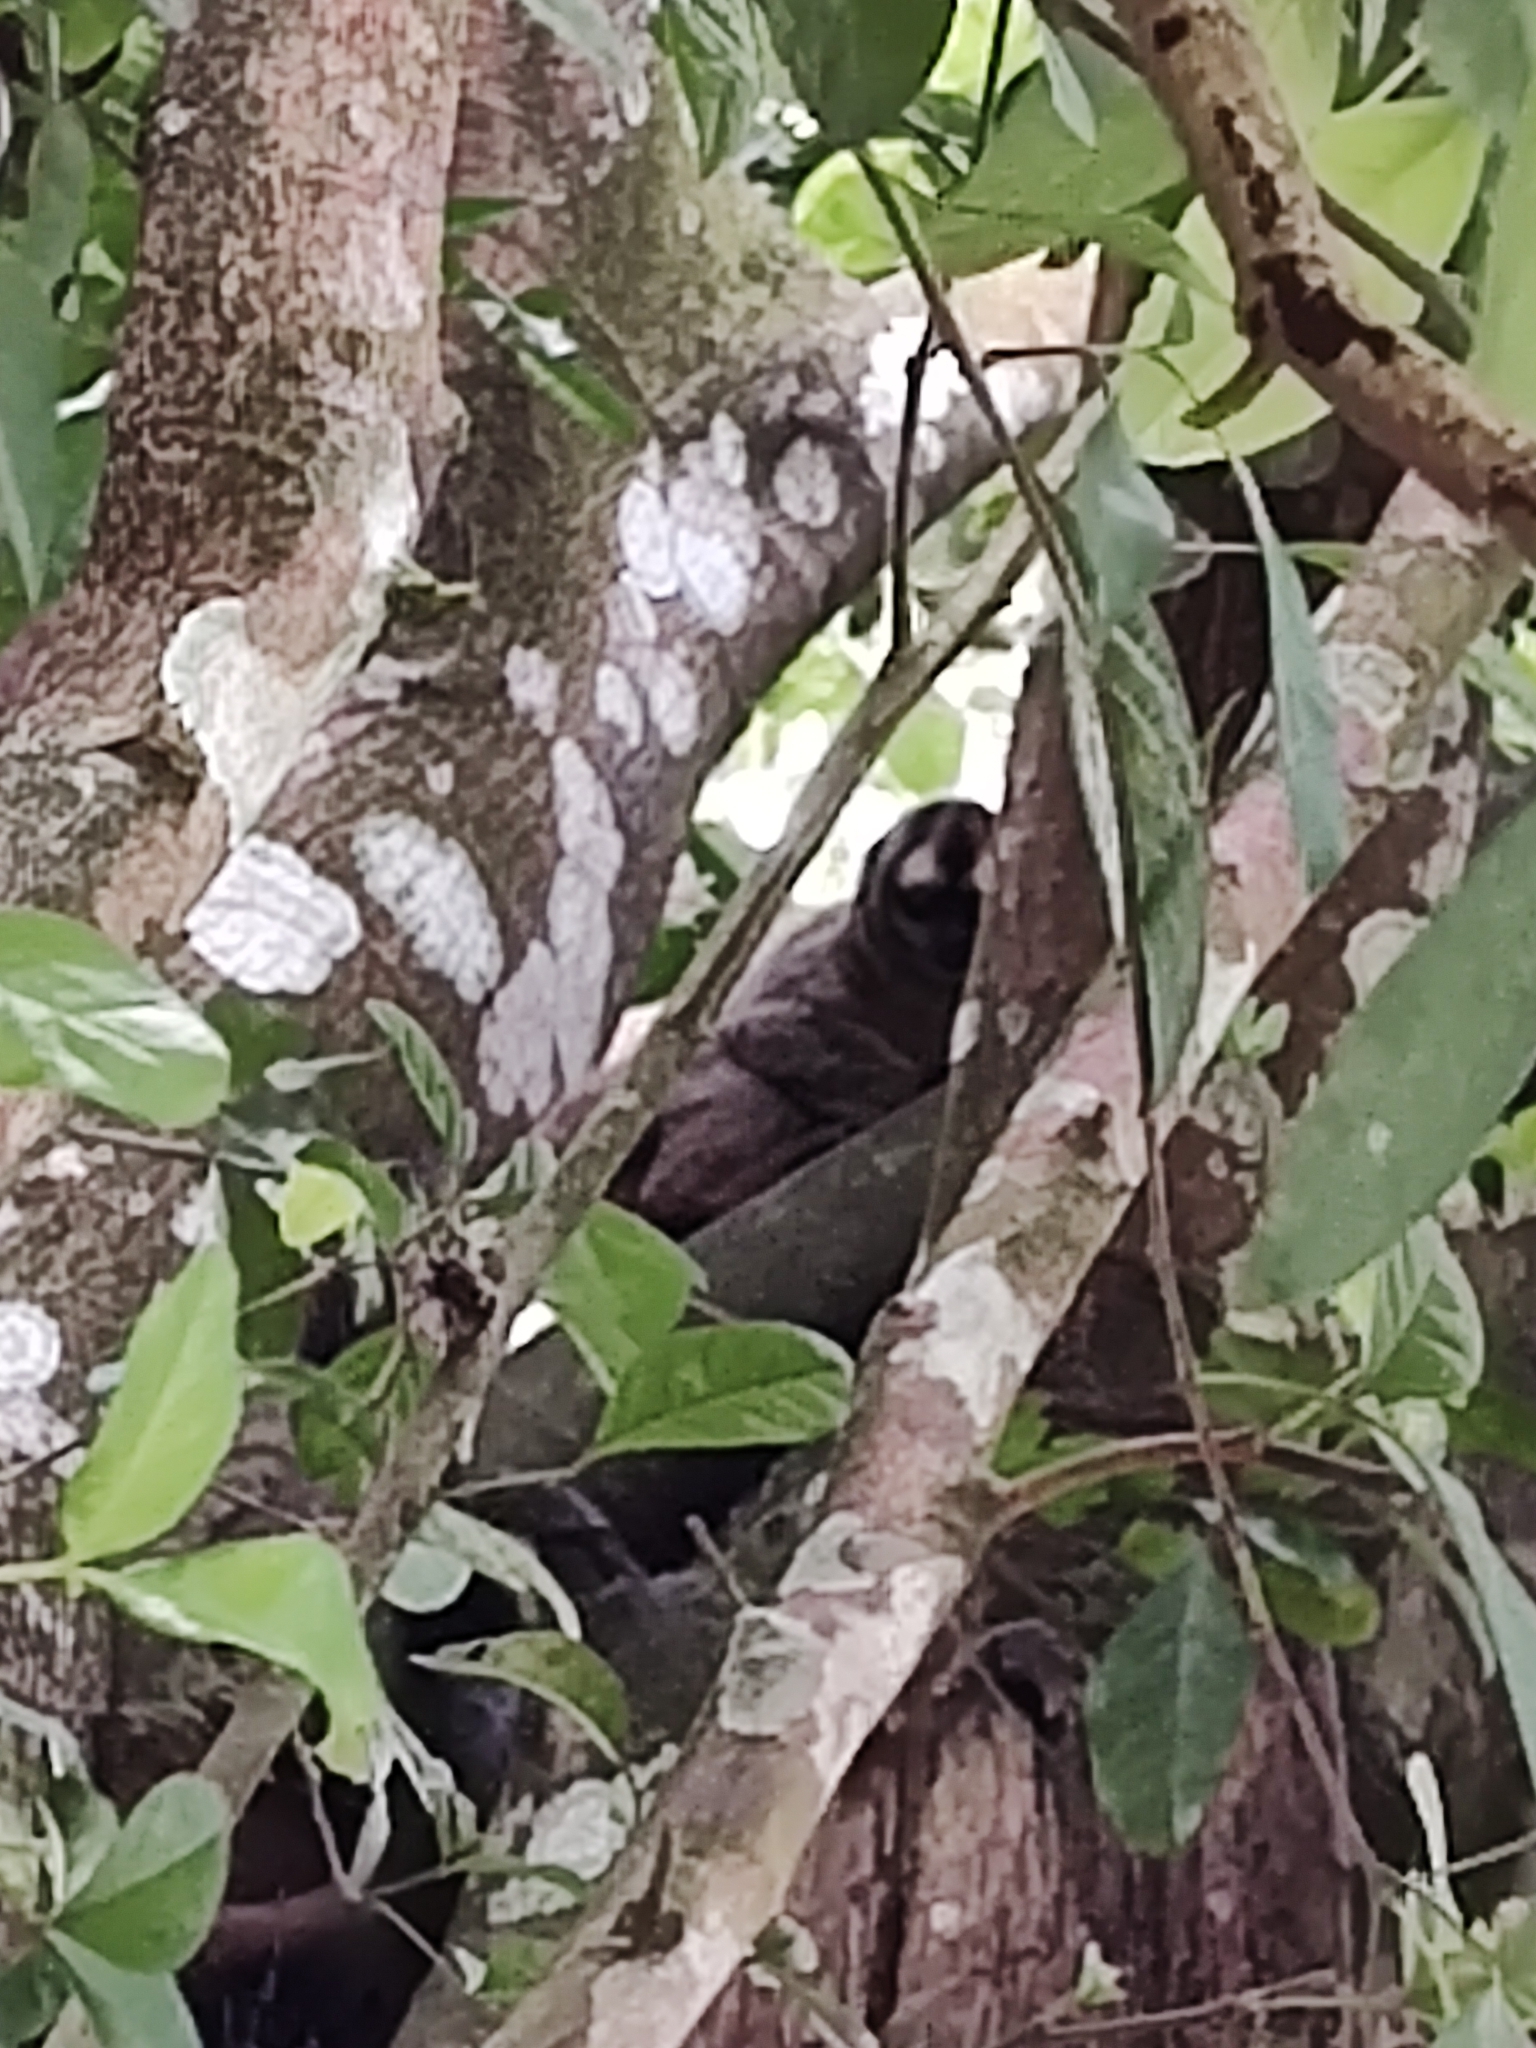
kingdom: Animalia
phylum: Chordata
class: Mammalia
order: Primates
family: Aotidae
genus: Aotus
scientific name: Aotus brumbacki
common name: Brumback's night monkey
